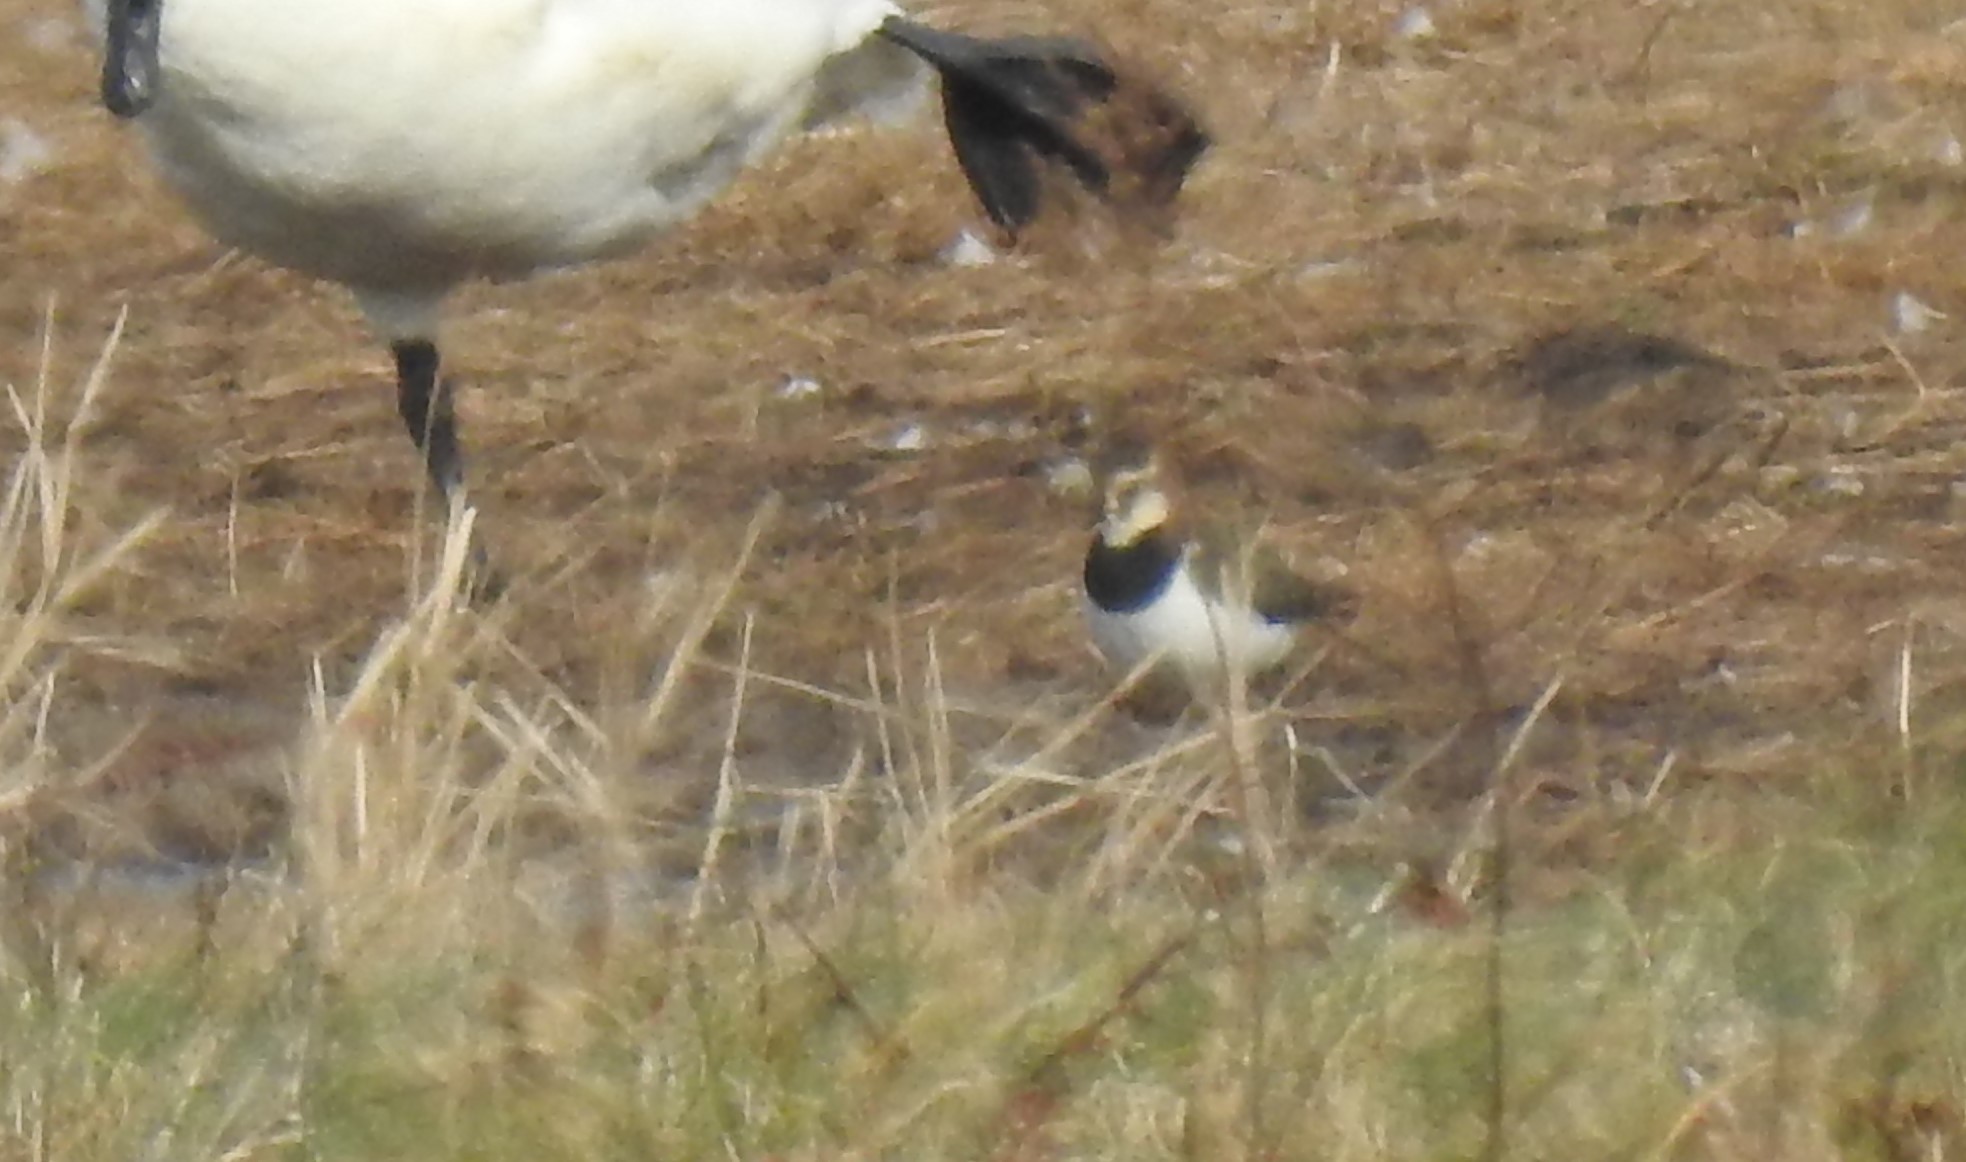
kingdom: Animalia
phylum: Chordata
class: Aves
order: Charadriiformes
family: Charadriidae
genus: Vanellus
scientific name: Vanellus vanellus
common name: Northern lapwing
